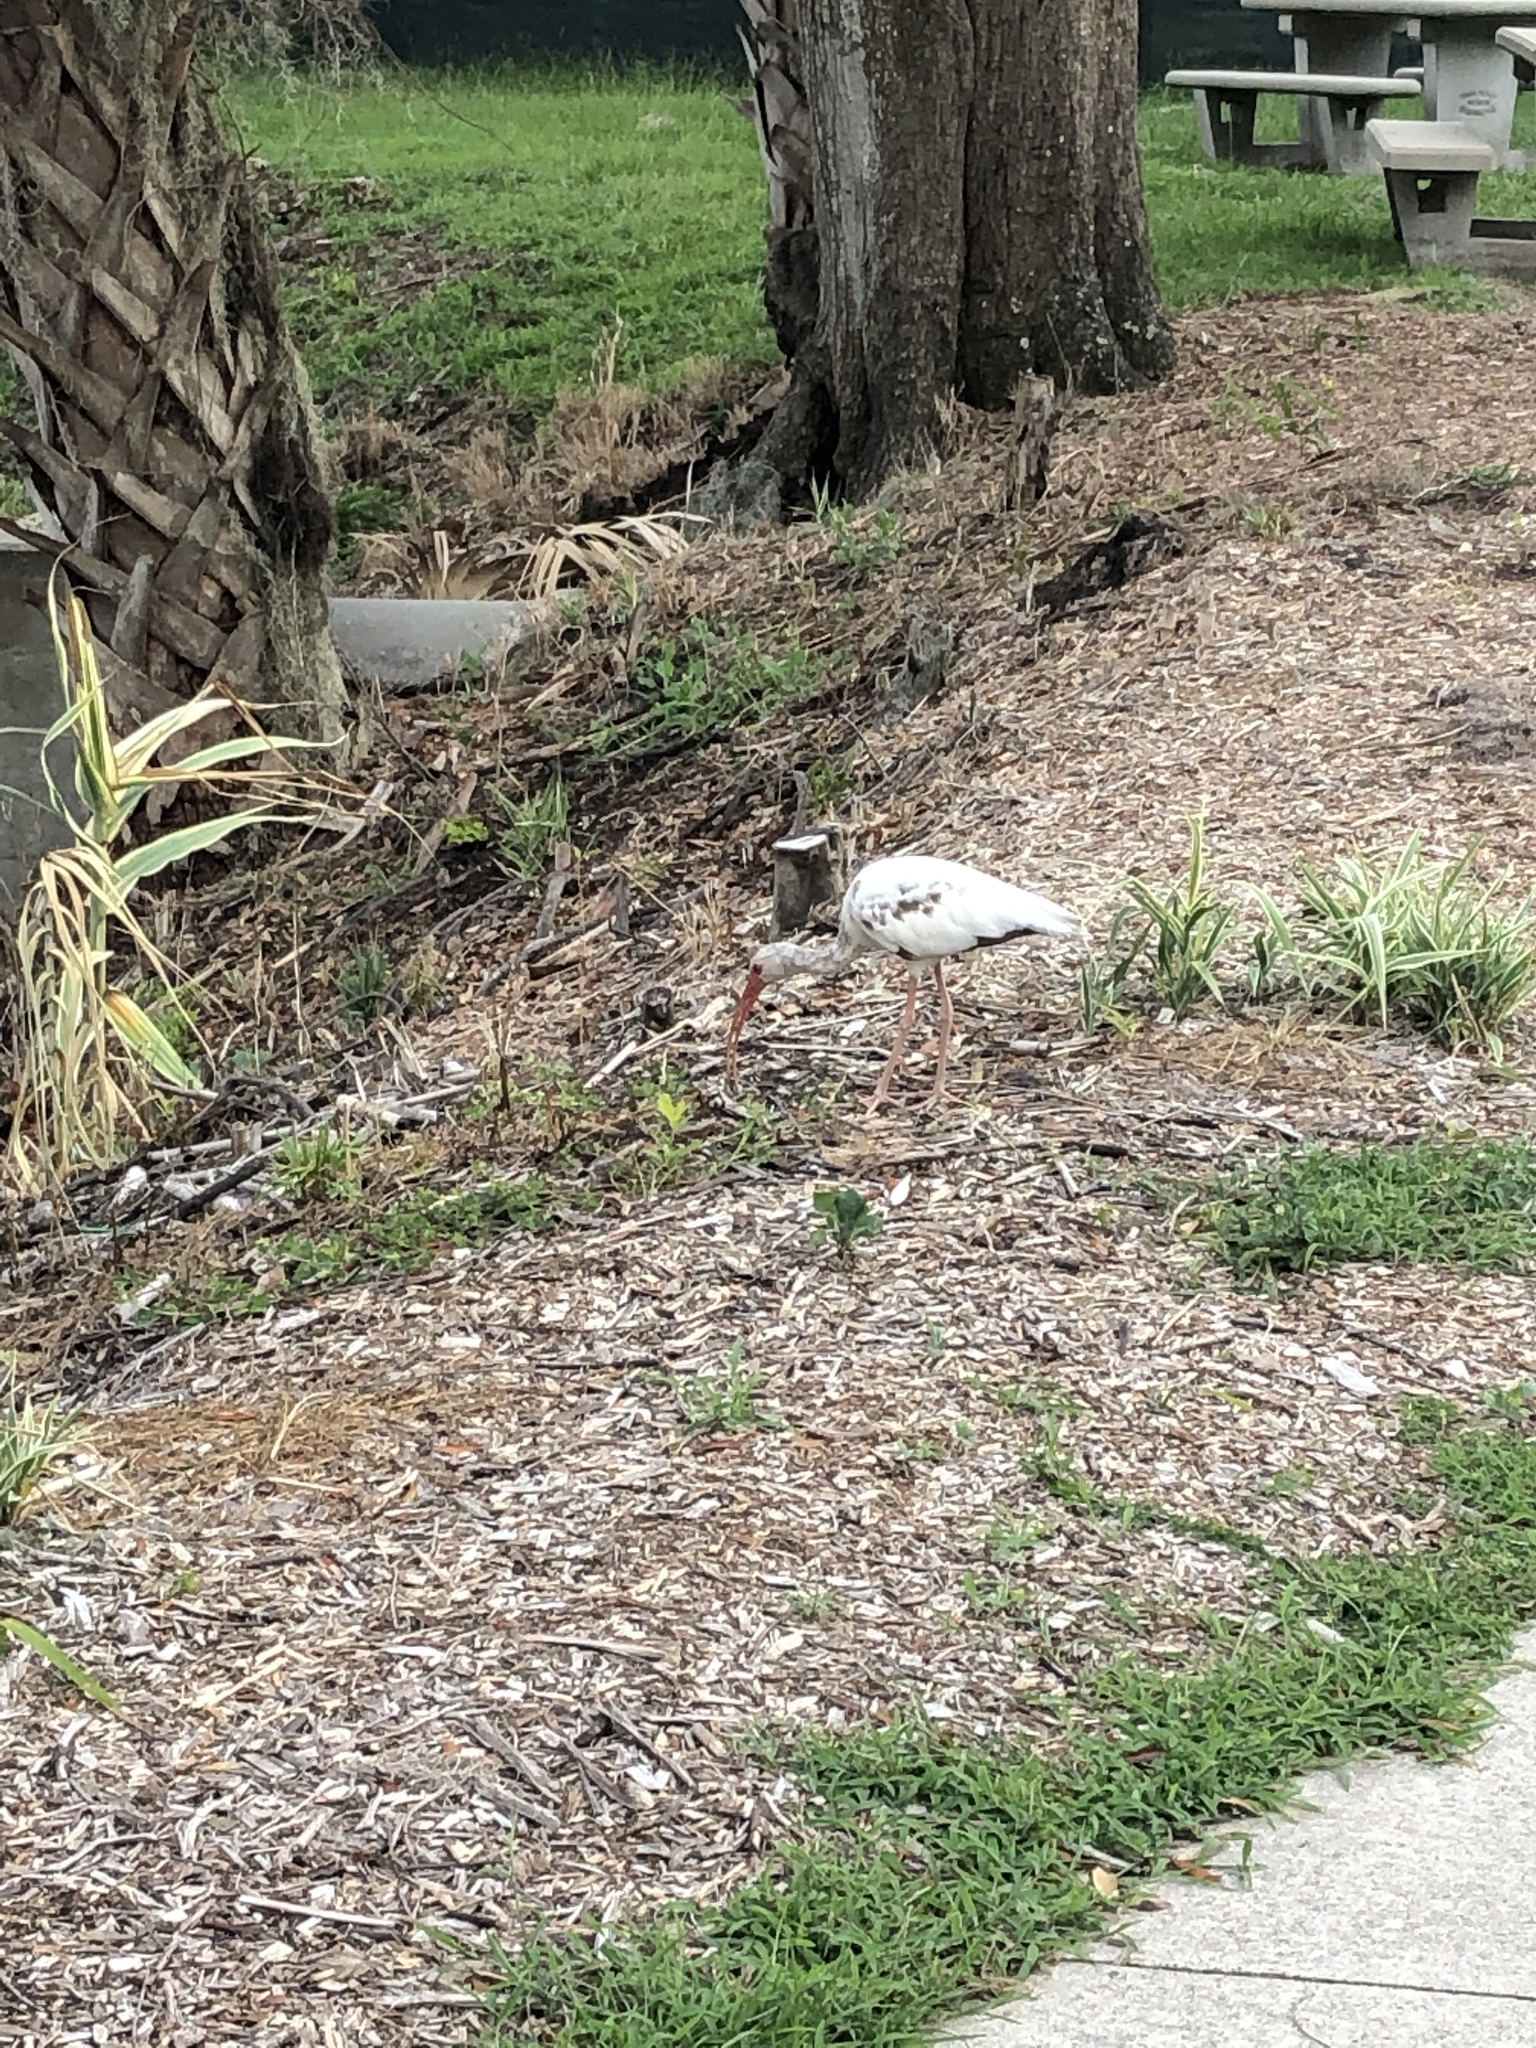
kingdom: Animalia
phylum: Chordata
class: Aves
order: Pelecaniformes
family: Threskiornithidae
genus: Eudocimus
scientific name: Eudocimus albus
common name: White ibis
